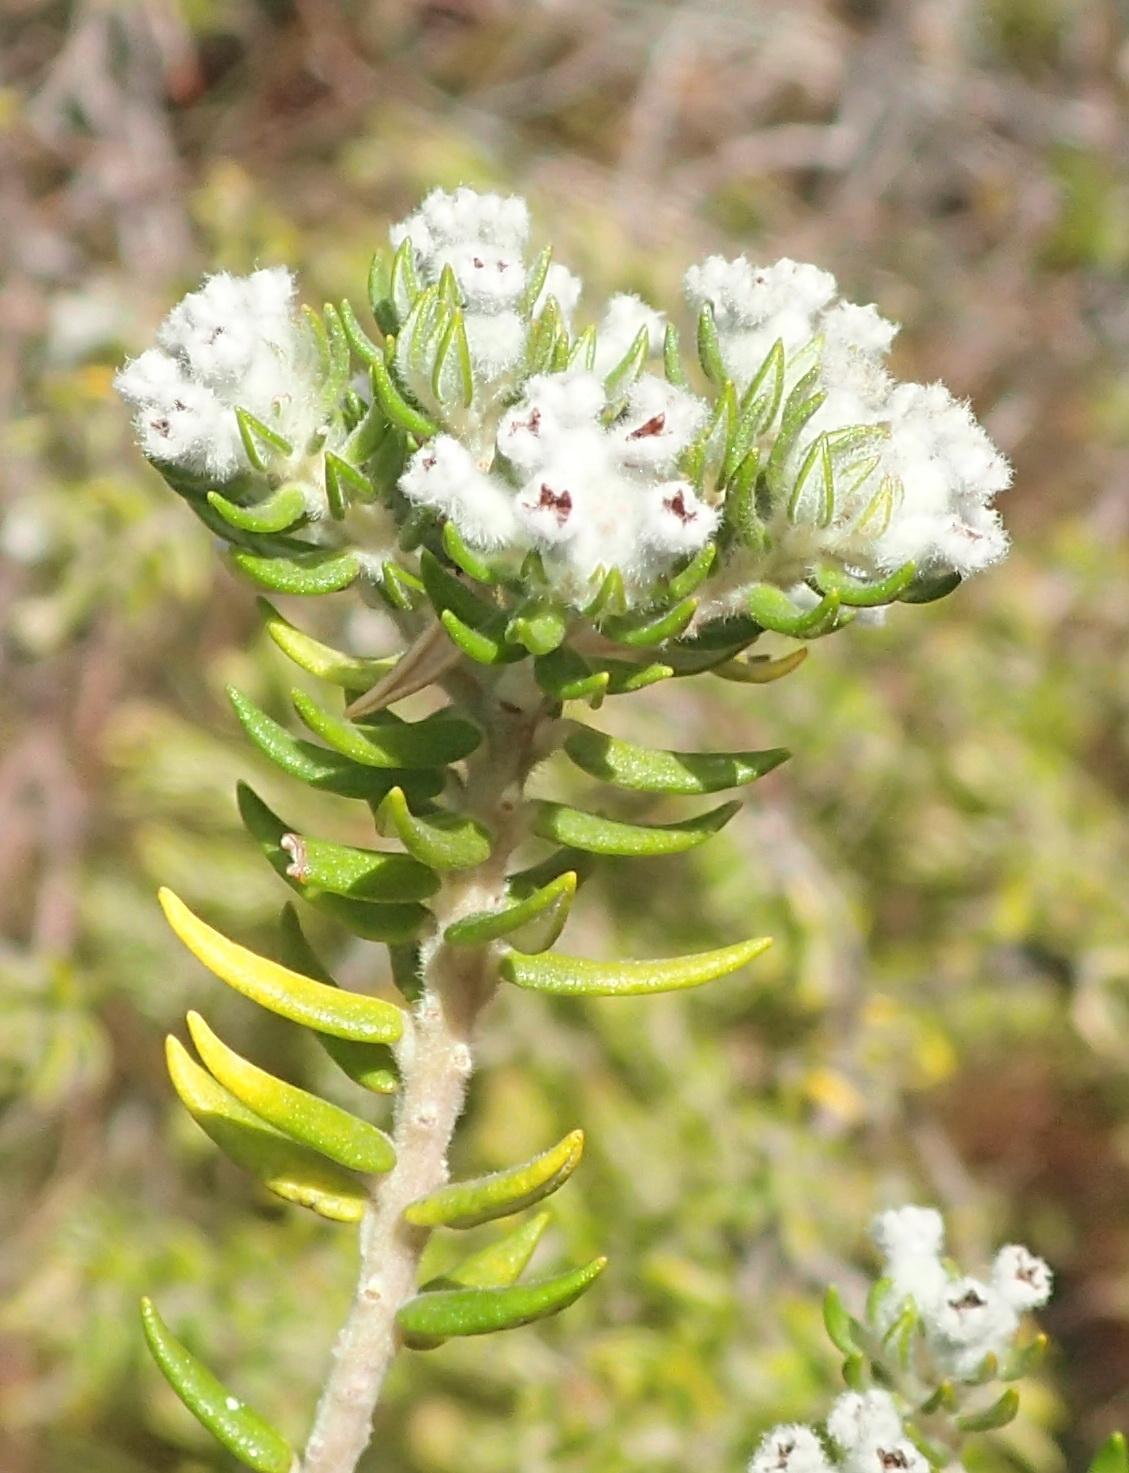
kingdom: Plantae
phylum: Tracheophyta
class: Magnoliopsida
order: Rosales
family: Rhamnaceae
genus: Phylica
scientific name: Phylica pinea
